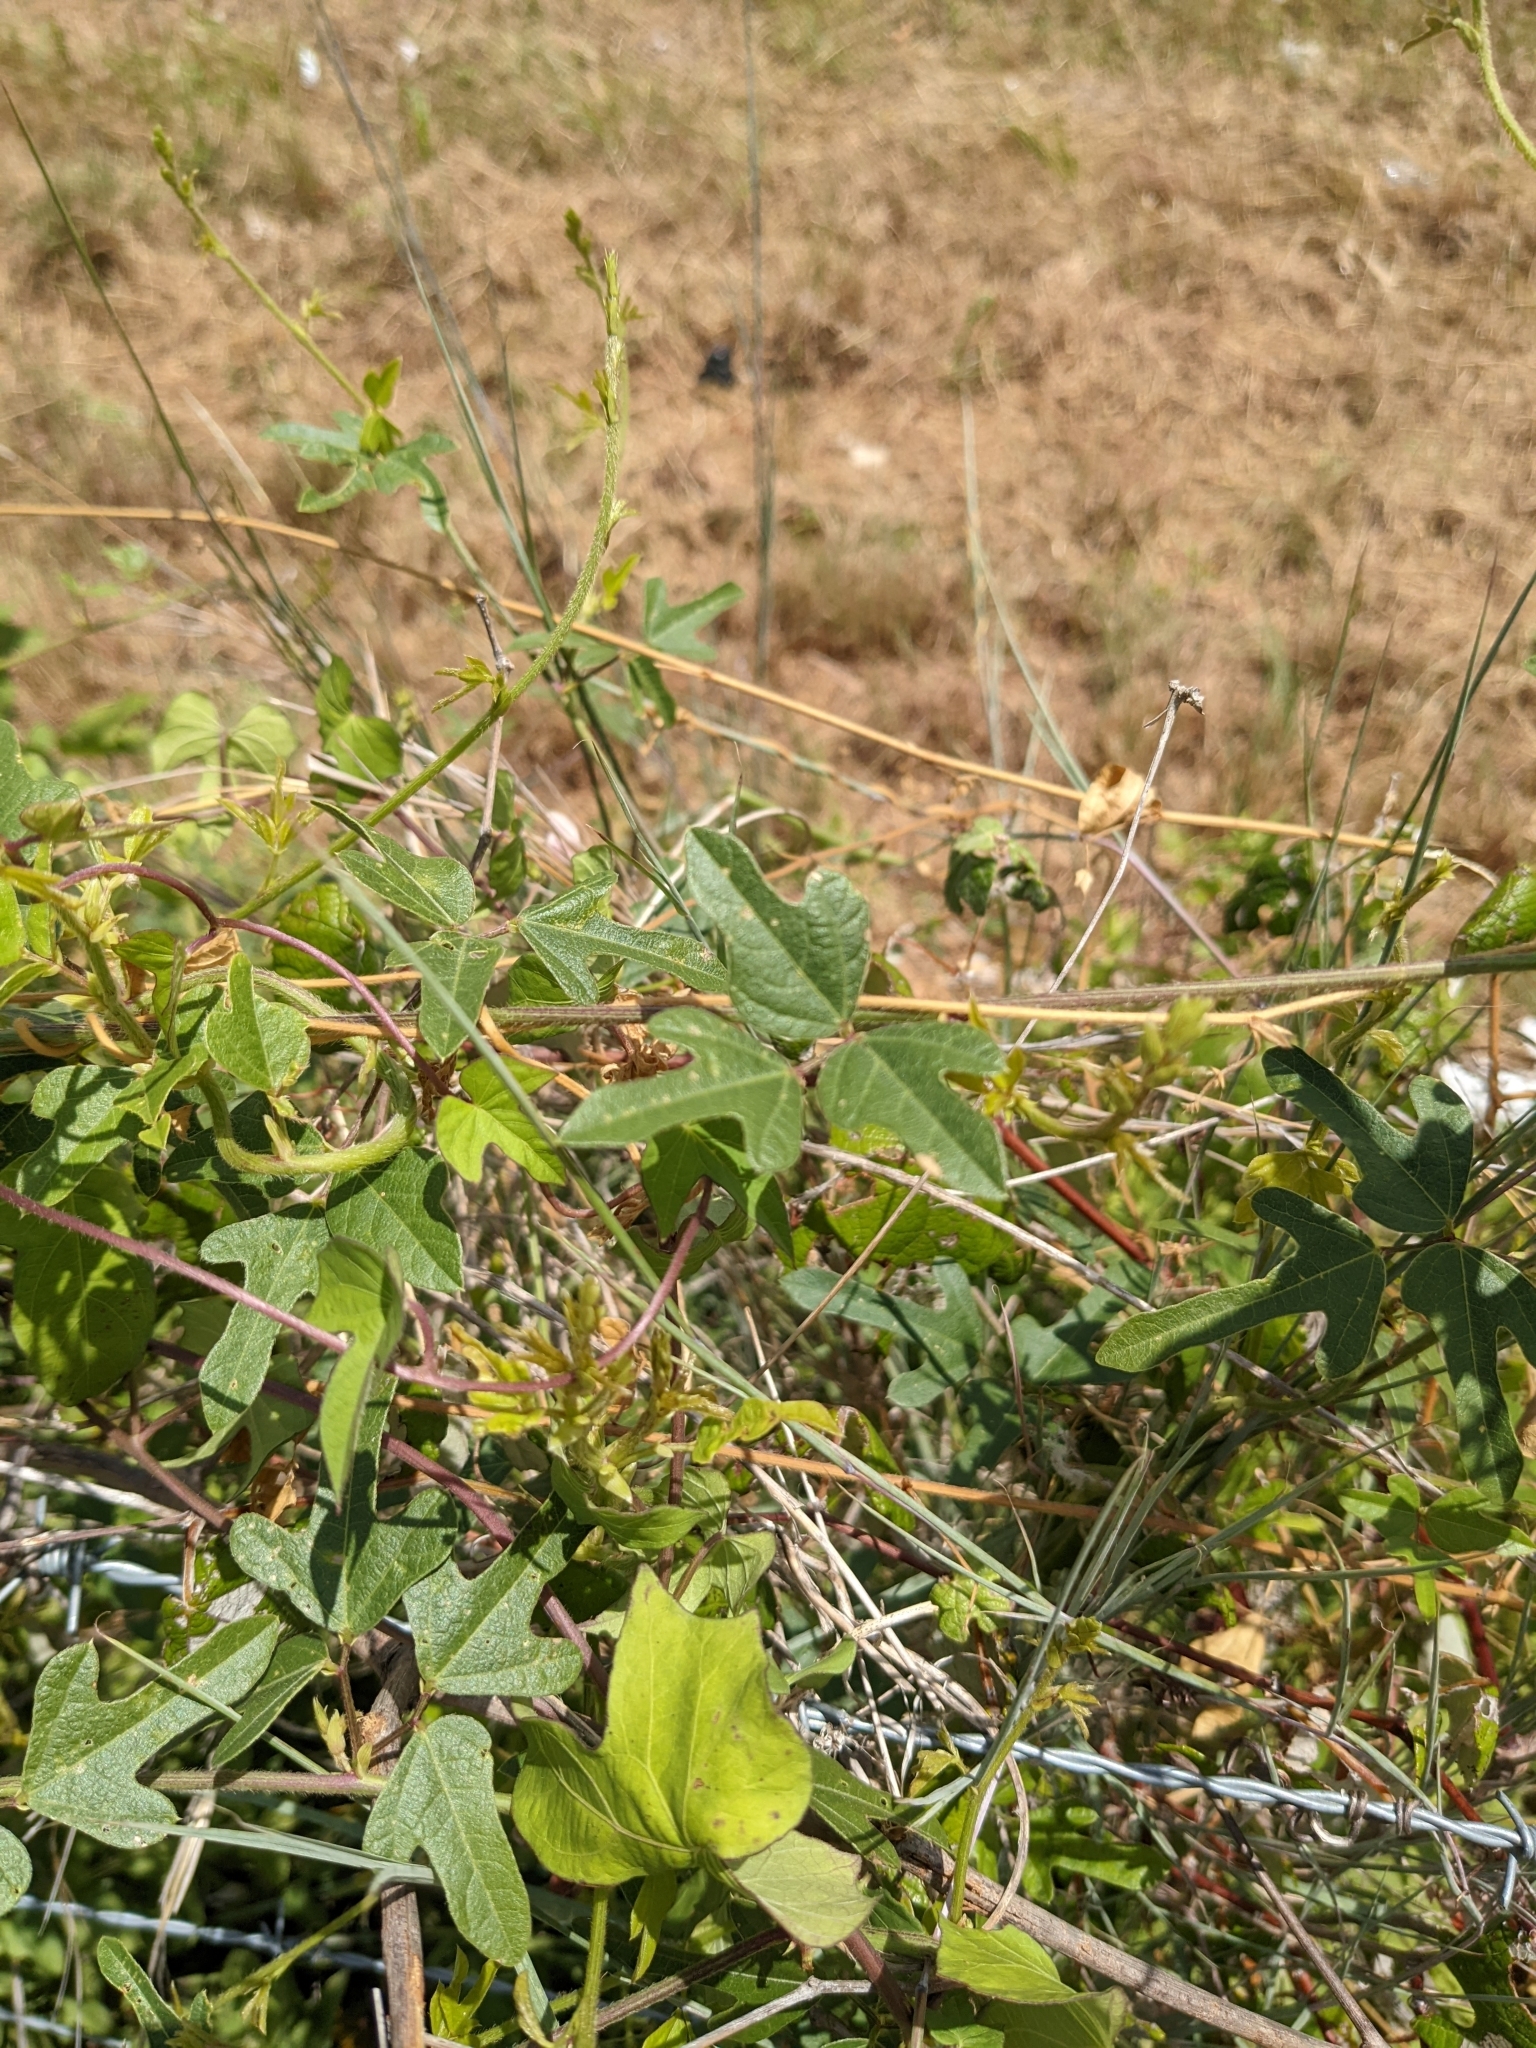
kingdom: Plantae
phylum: Tracheophyta
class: Magnoliopsida
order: Fabales
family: Fabaceae
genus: Strophostyles
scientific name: Strophostyles helvola
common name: Trailing wild bean
